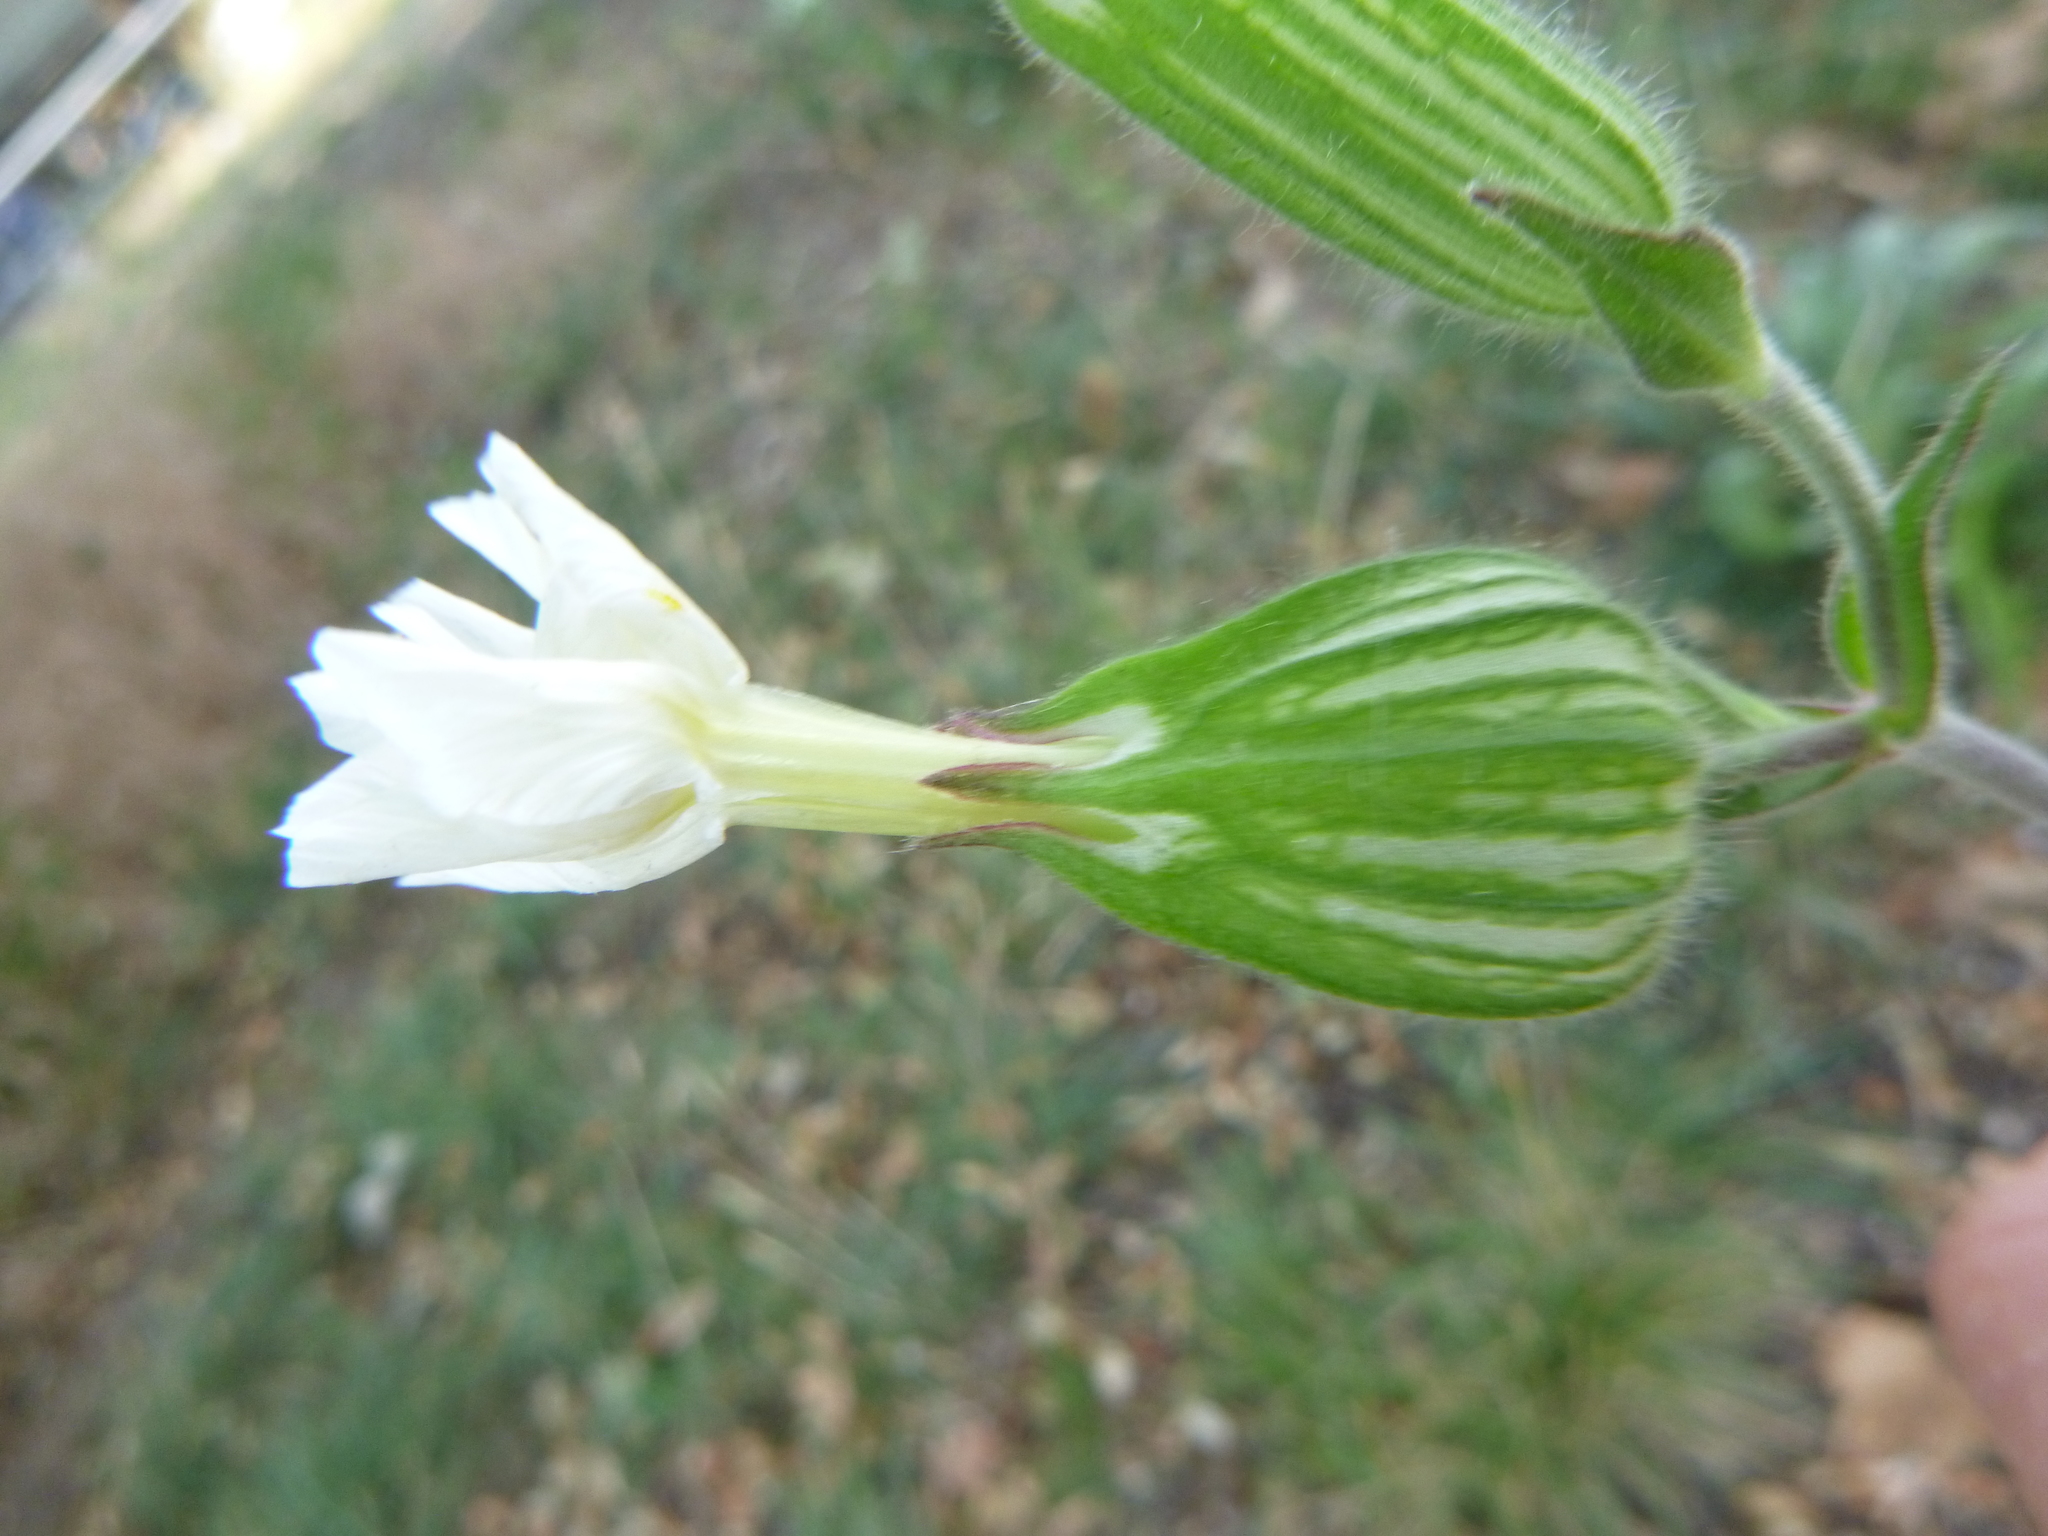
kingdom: Plantae
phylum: Tracheophyta
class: Magnoliopsida
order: Caryophyllales
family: Caryophyllaceae
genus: Silene
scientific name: Silene latifolia
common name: White campion
